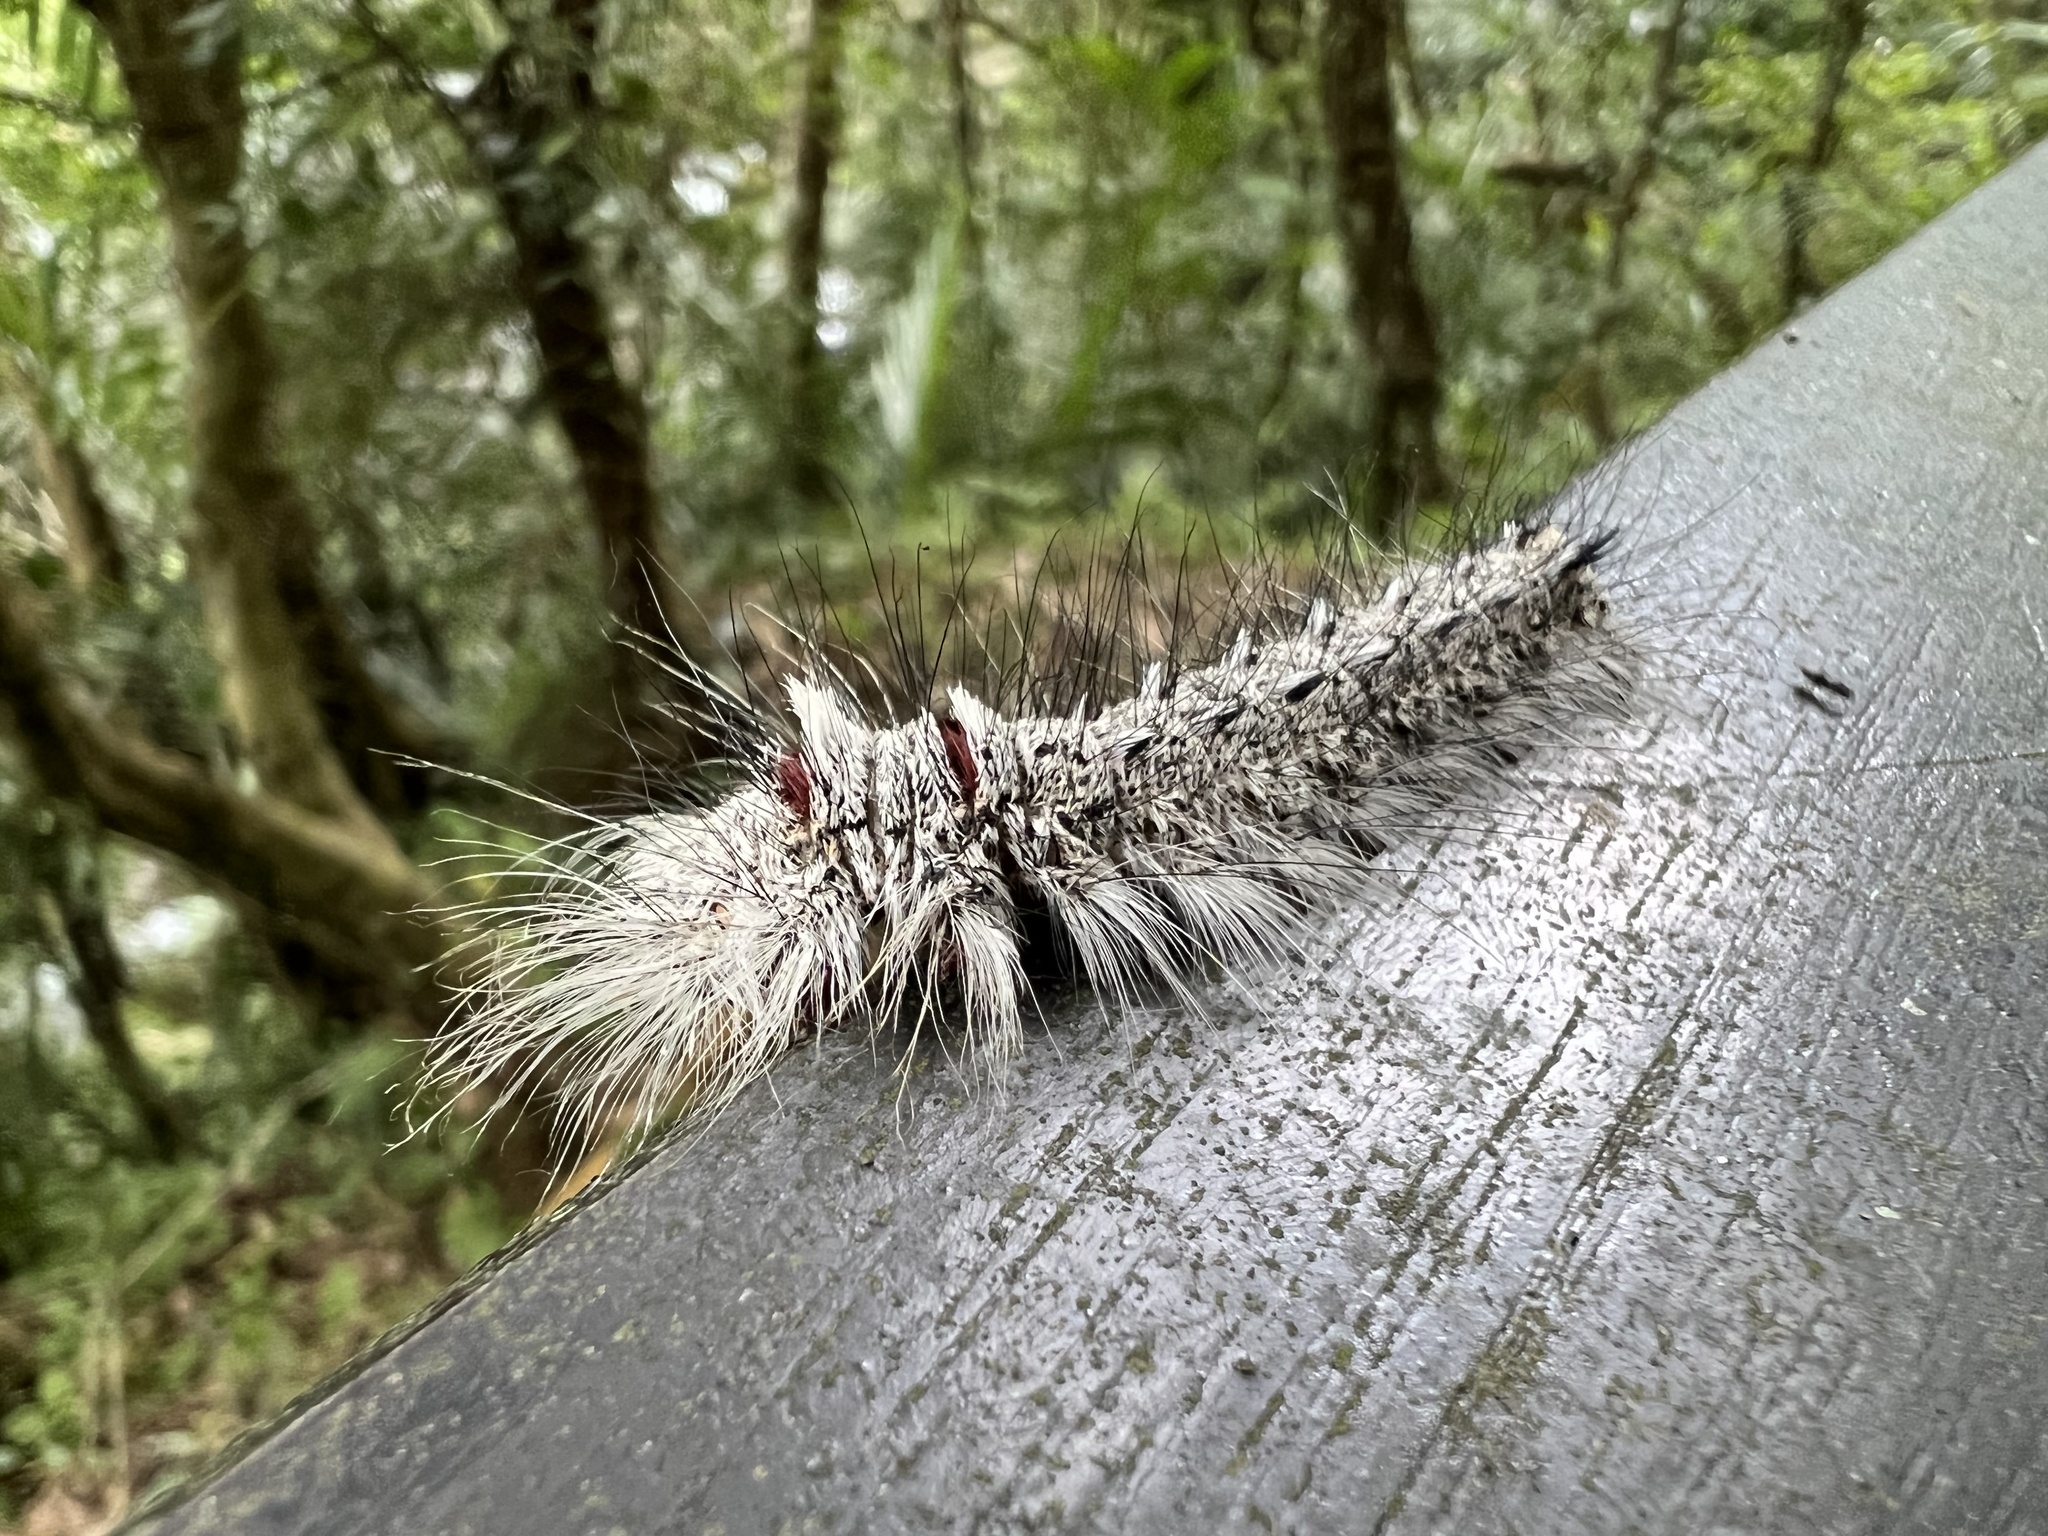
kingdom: Animalia
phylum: Arthropoda
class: Insecta
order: Lepidoptera
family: Lasiocampidae
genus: Lebeda
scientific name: Lebeda nobilis
